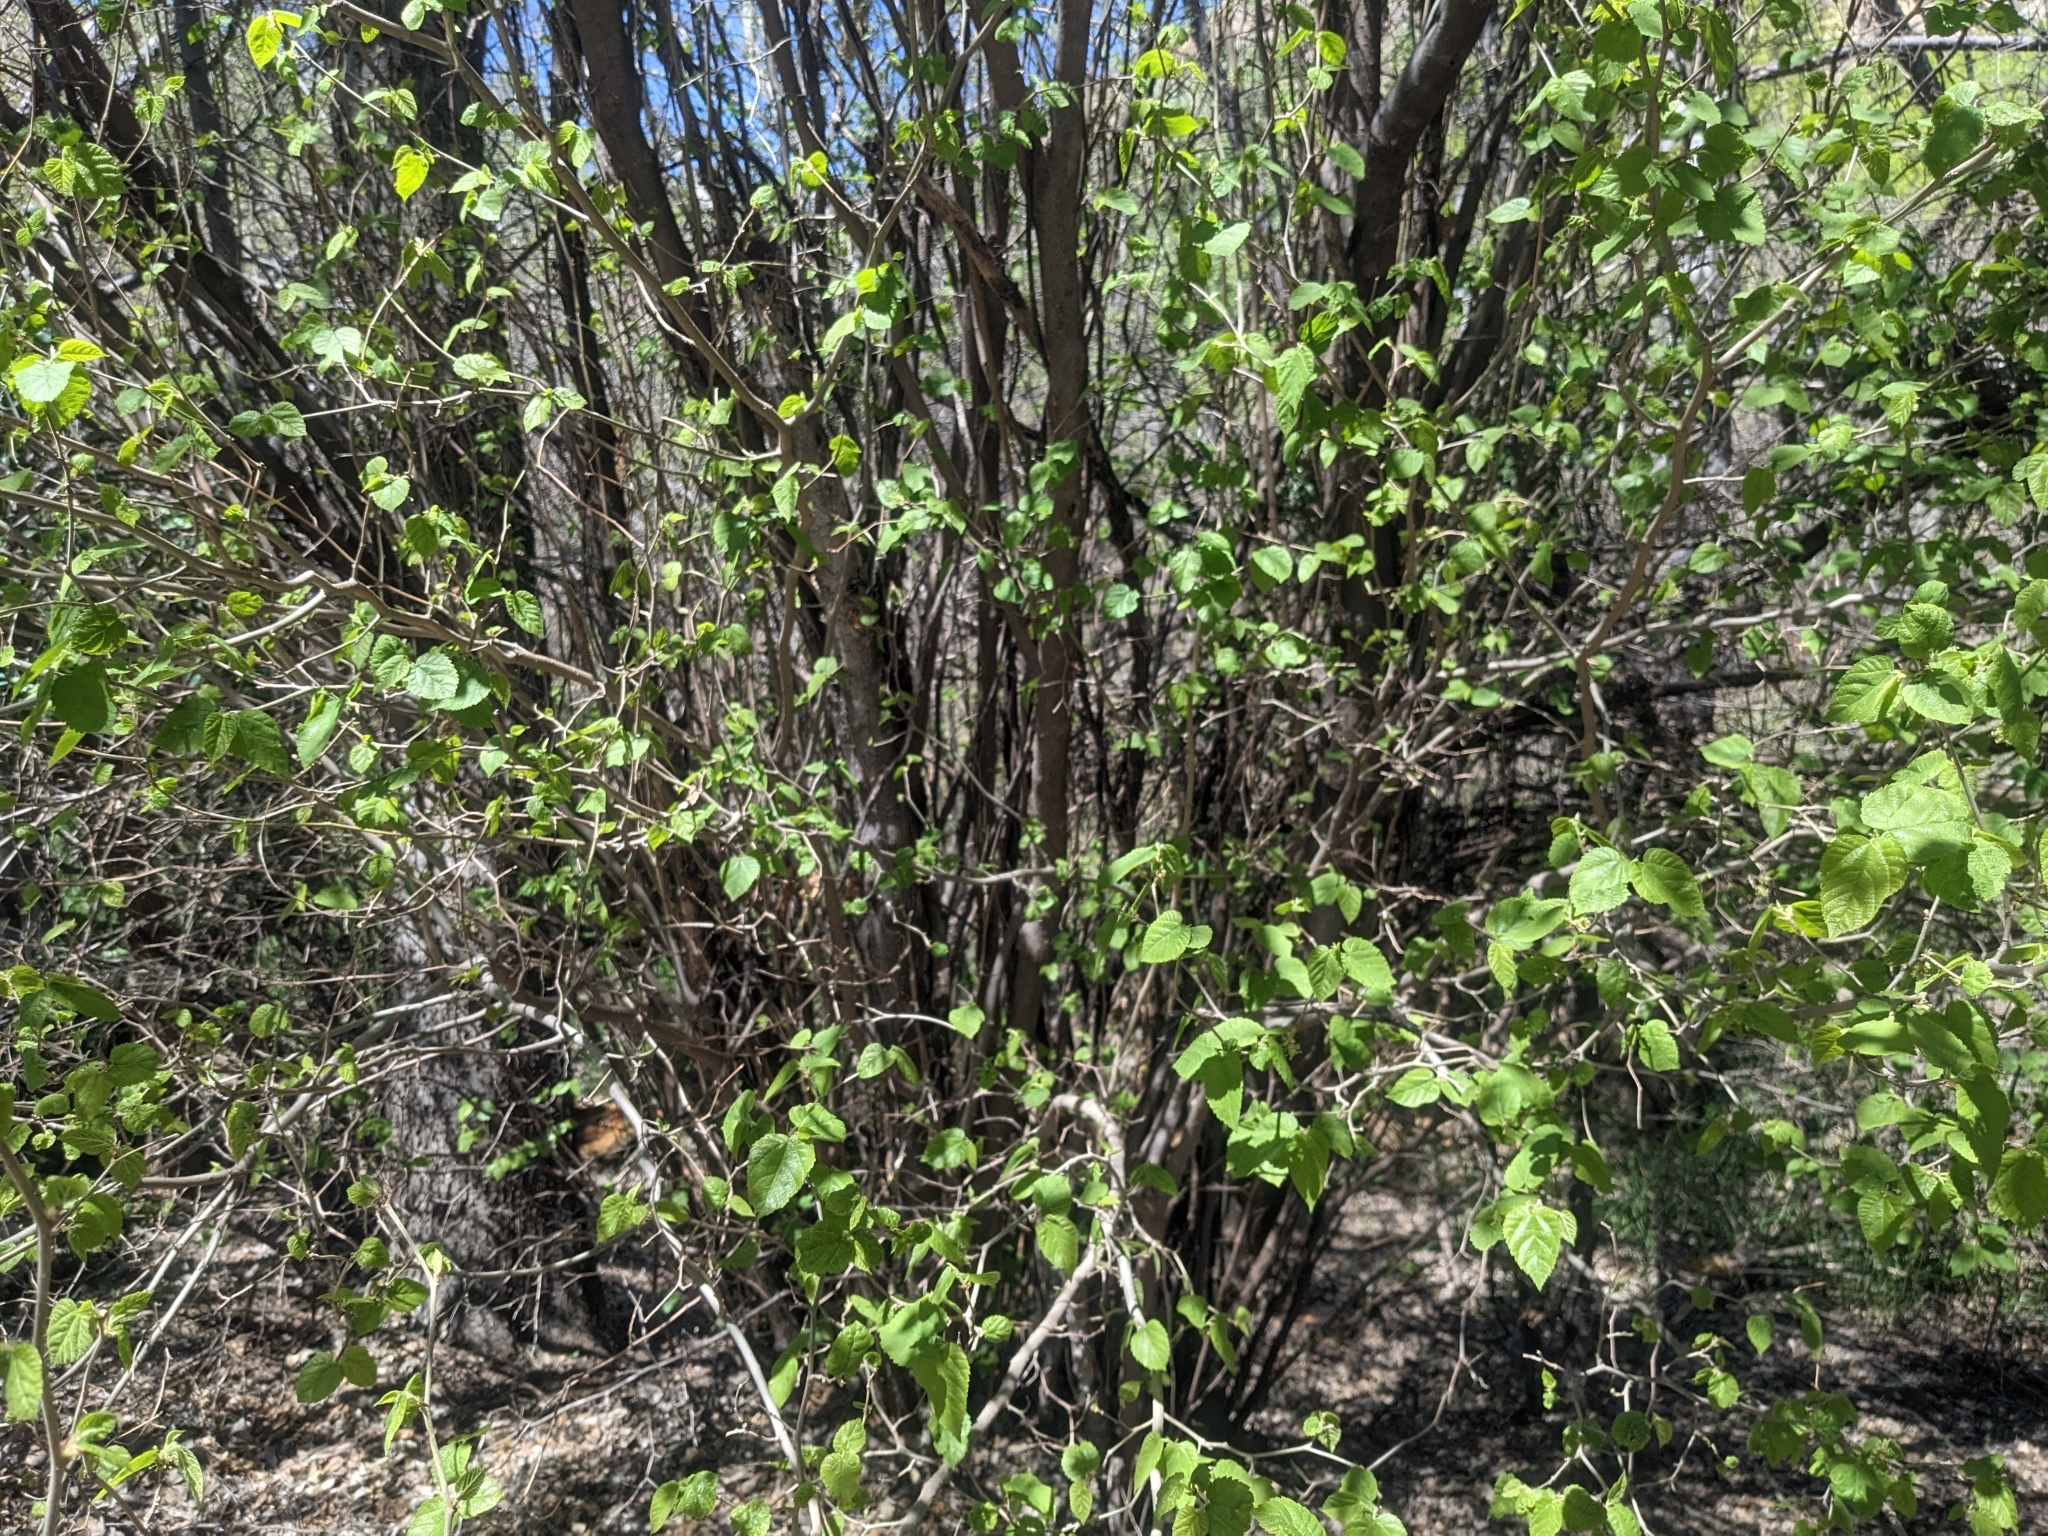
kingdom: Plantae
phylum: Tracheophyta
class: Magnoliopsida
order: Rosales
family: Moraceae
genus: Morus
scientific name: Morus microphylla
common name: Mexican mulberry
